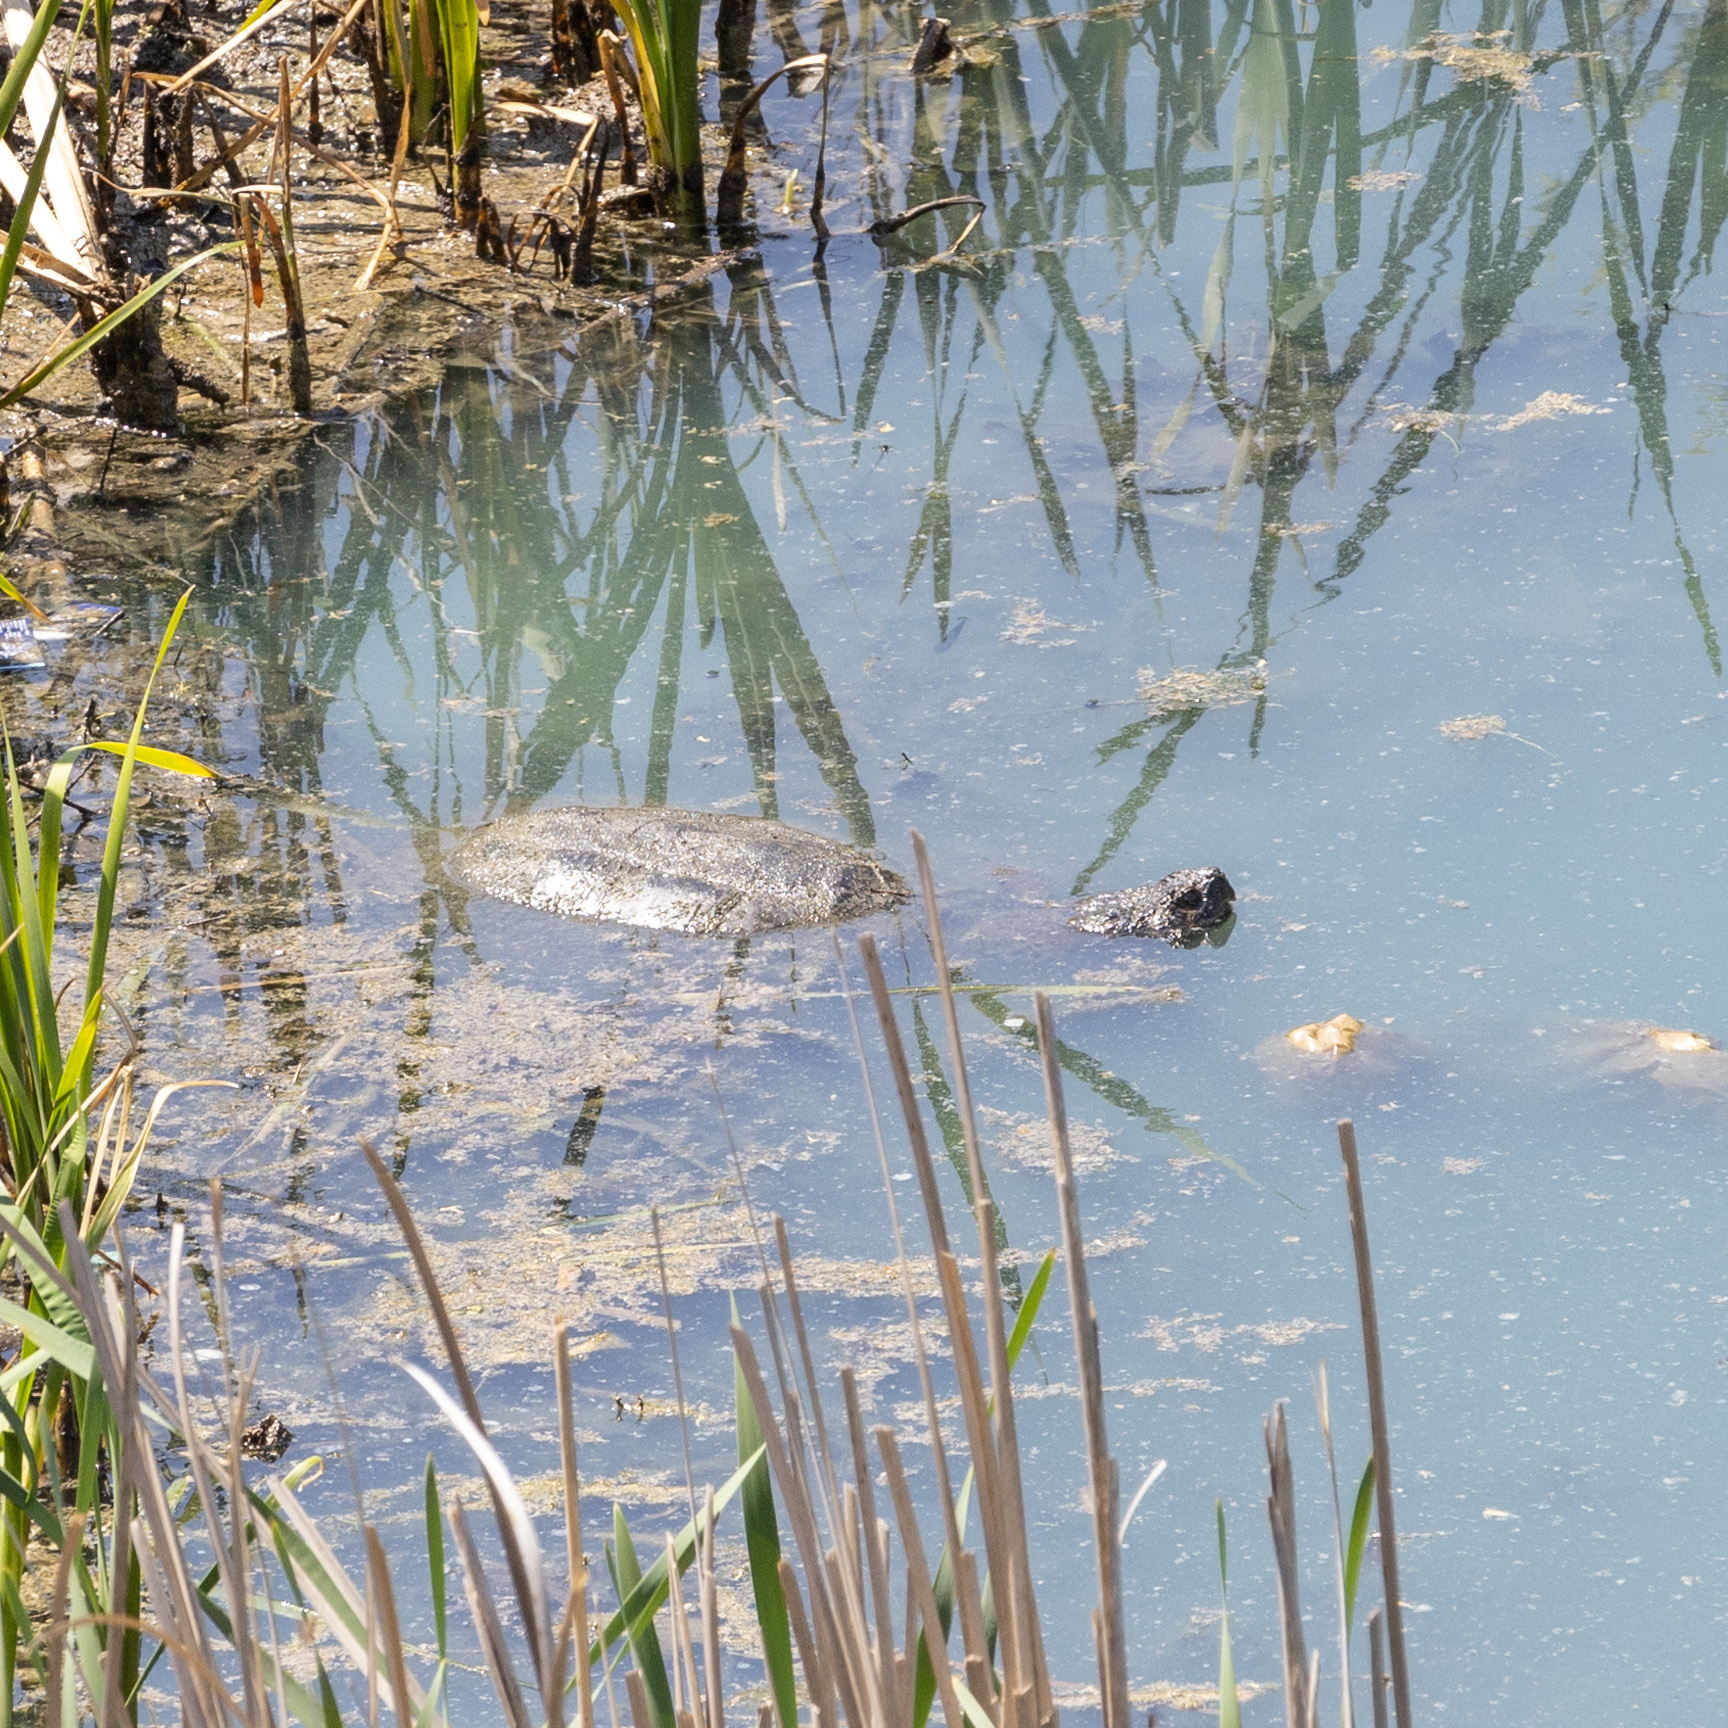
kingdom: Animalia
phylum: Chordata
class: Testudines
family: Chelydridae
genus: Chelydra
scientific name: Chelydra serpentina
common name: Common snapping turtle
